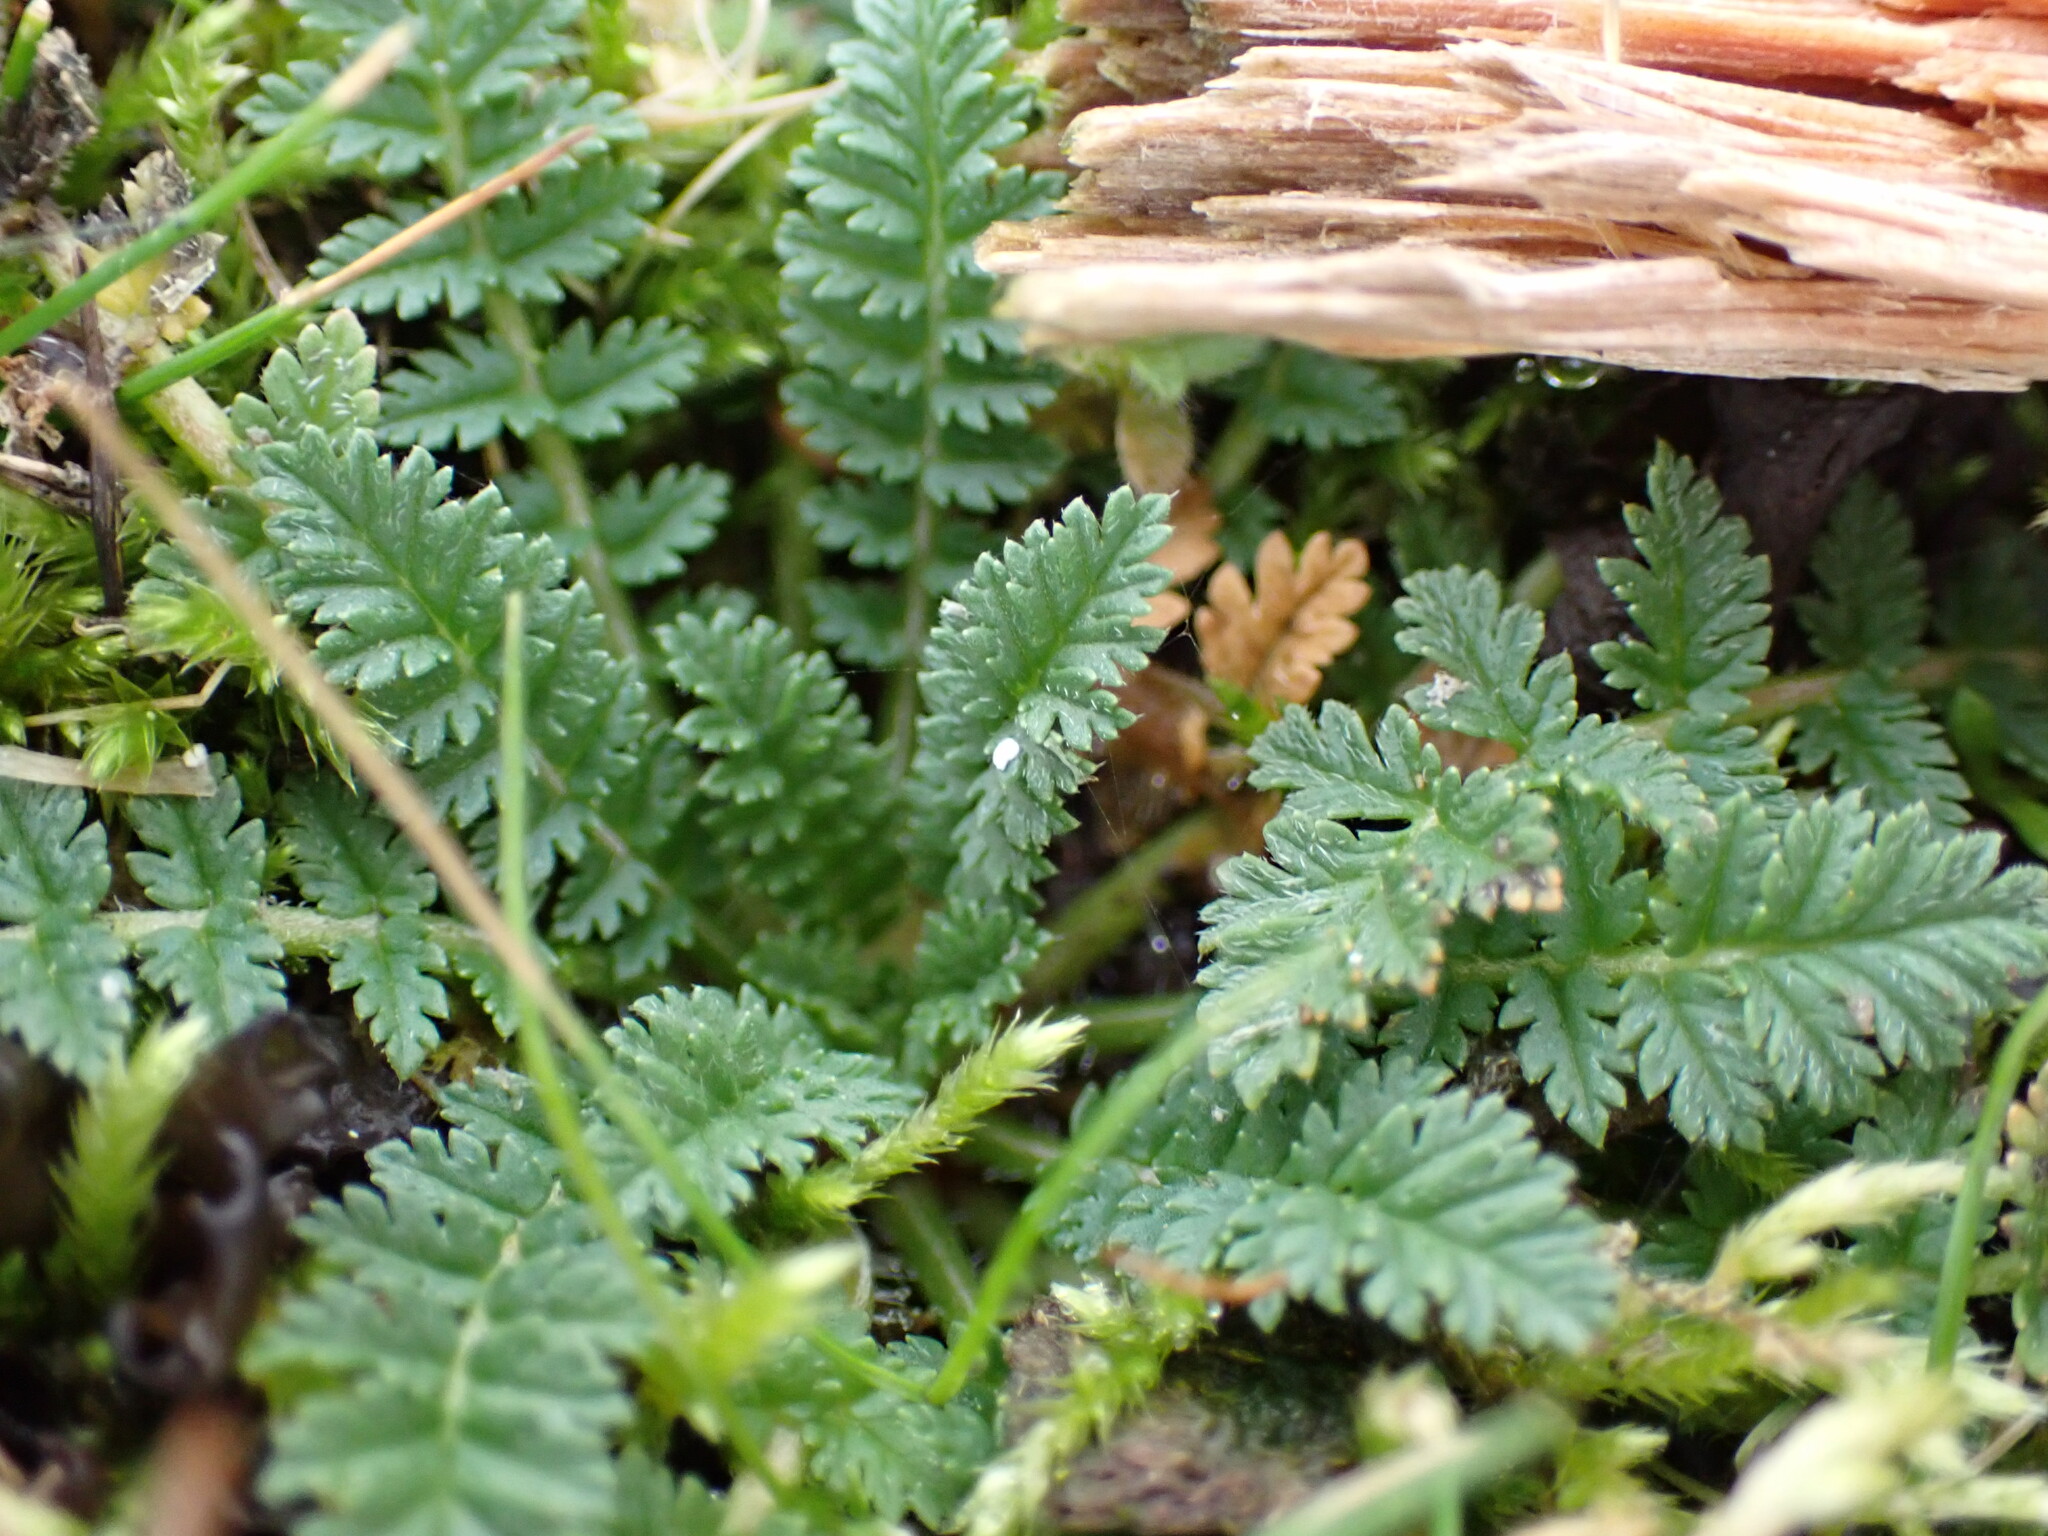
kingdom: Plantae
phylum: Tracheophyta
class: Magnoliopsida
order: Geraniales
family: Geraniaceae
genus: Erodium
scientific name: Erodium cicutarium
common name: Common stork's-bill
